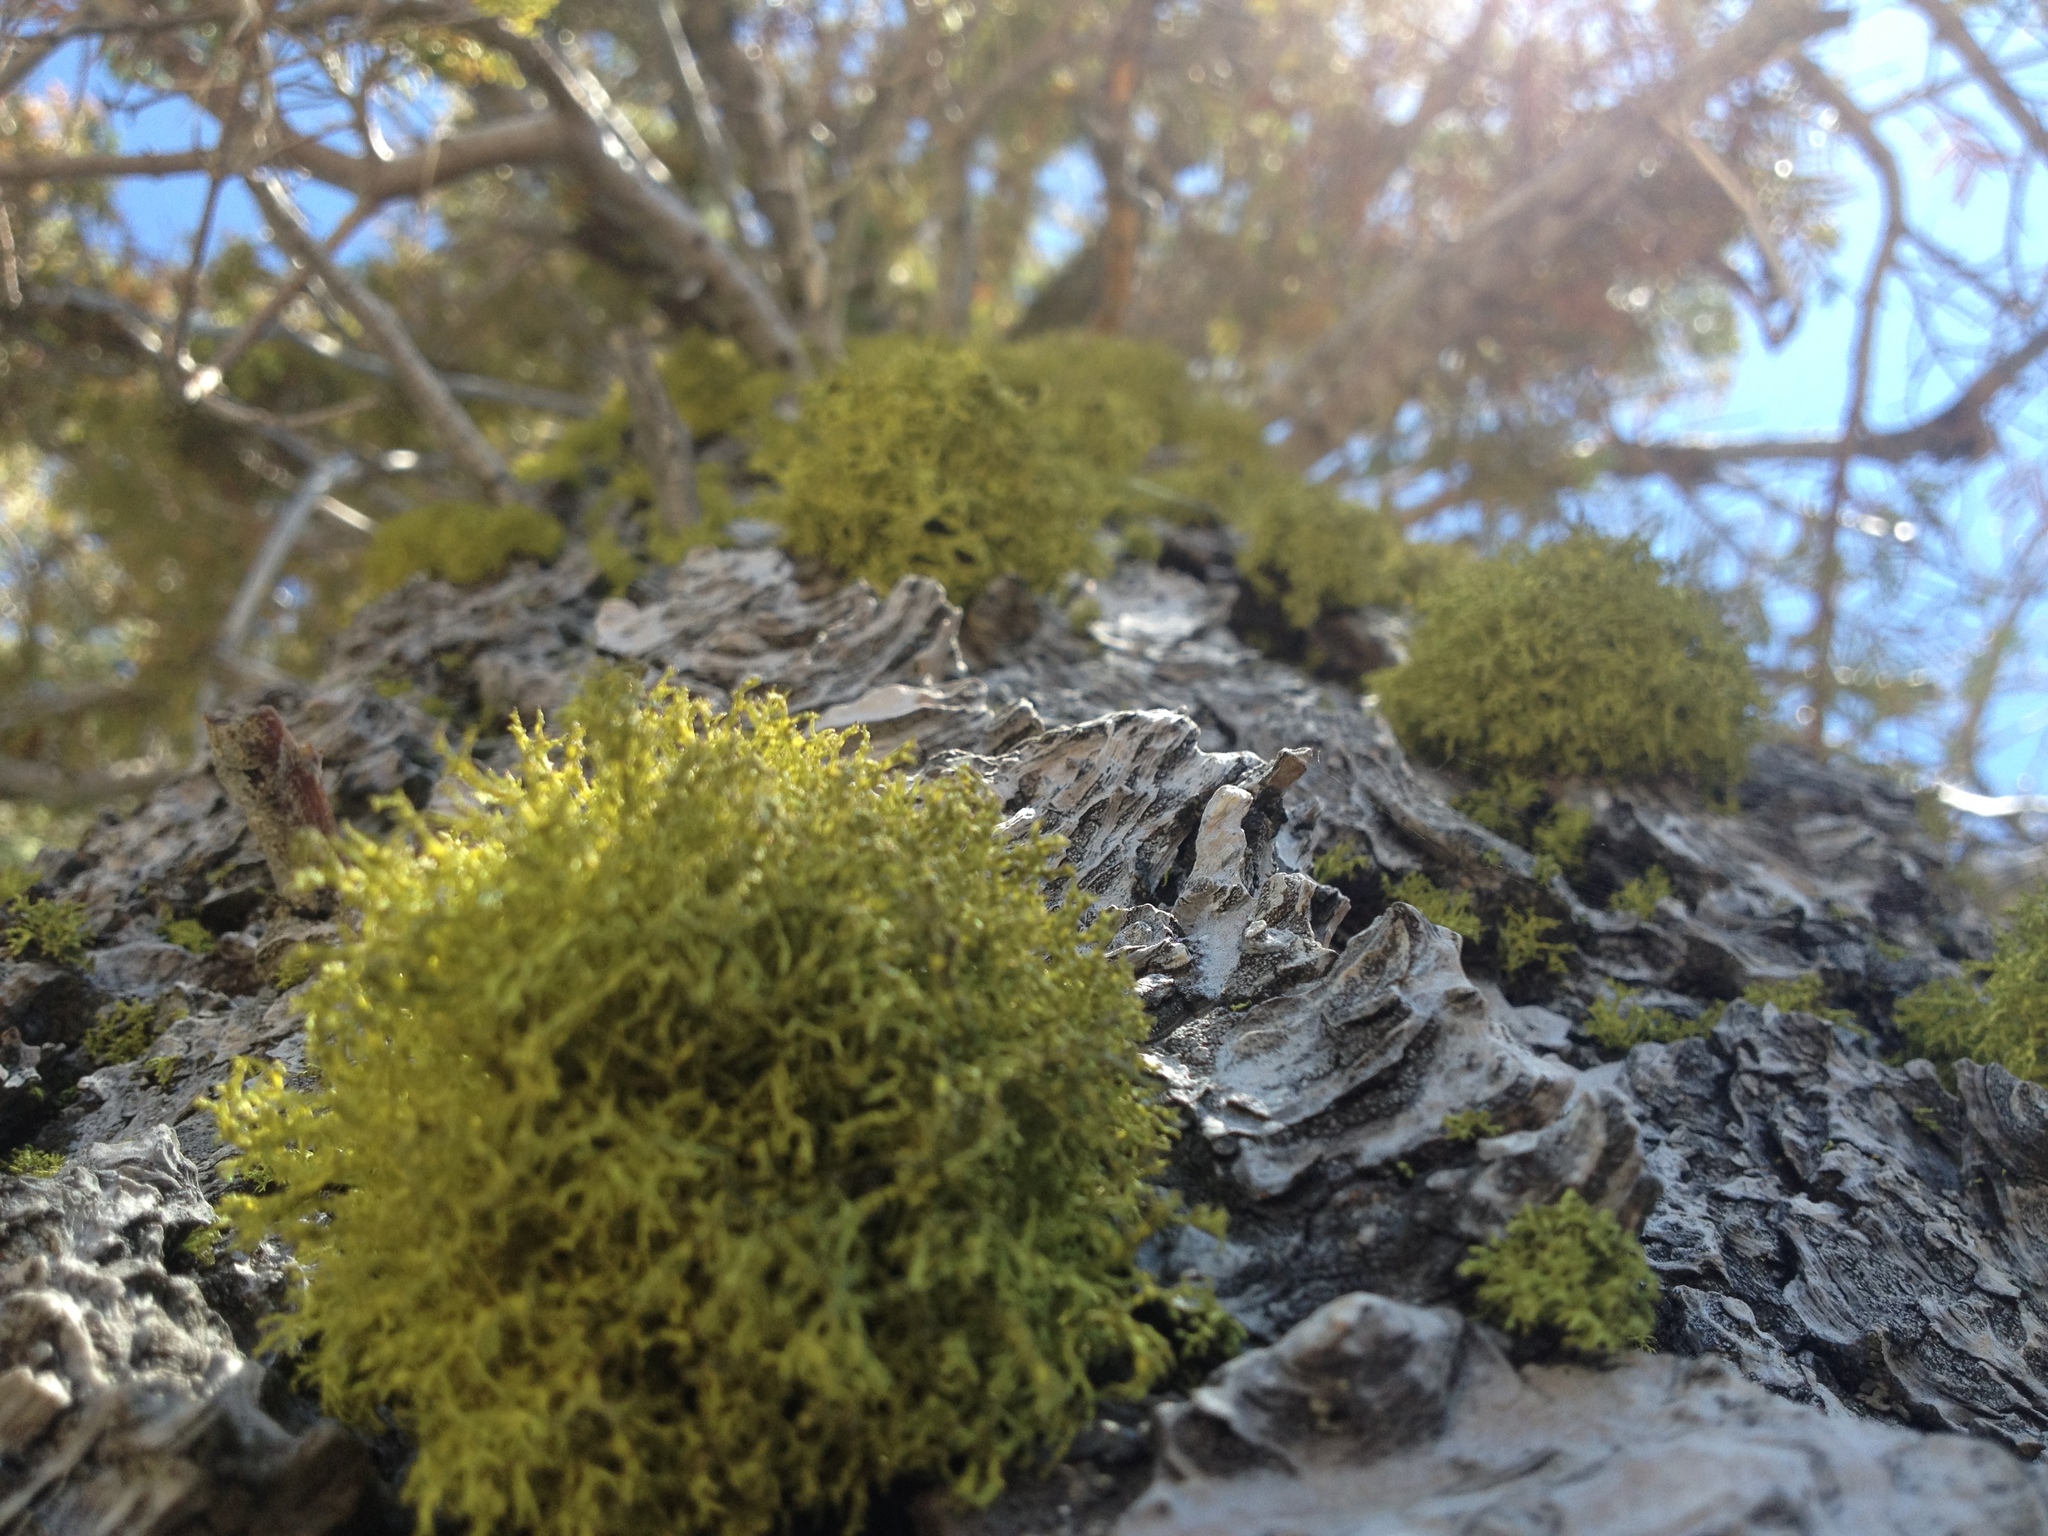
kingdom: Fungi
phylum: Ascomycota
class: Lecanoromycetes
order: Lecanorales
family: Parmeliaceae
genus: Letharia
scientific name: Letharia vulpina
